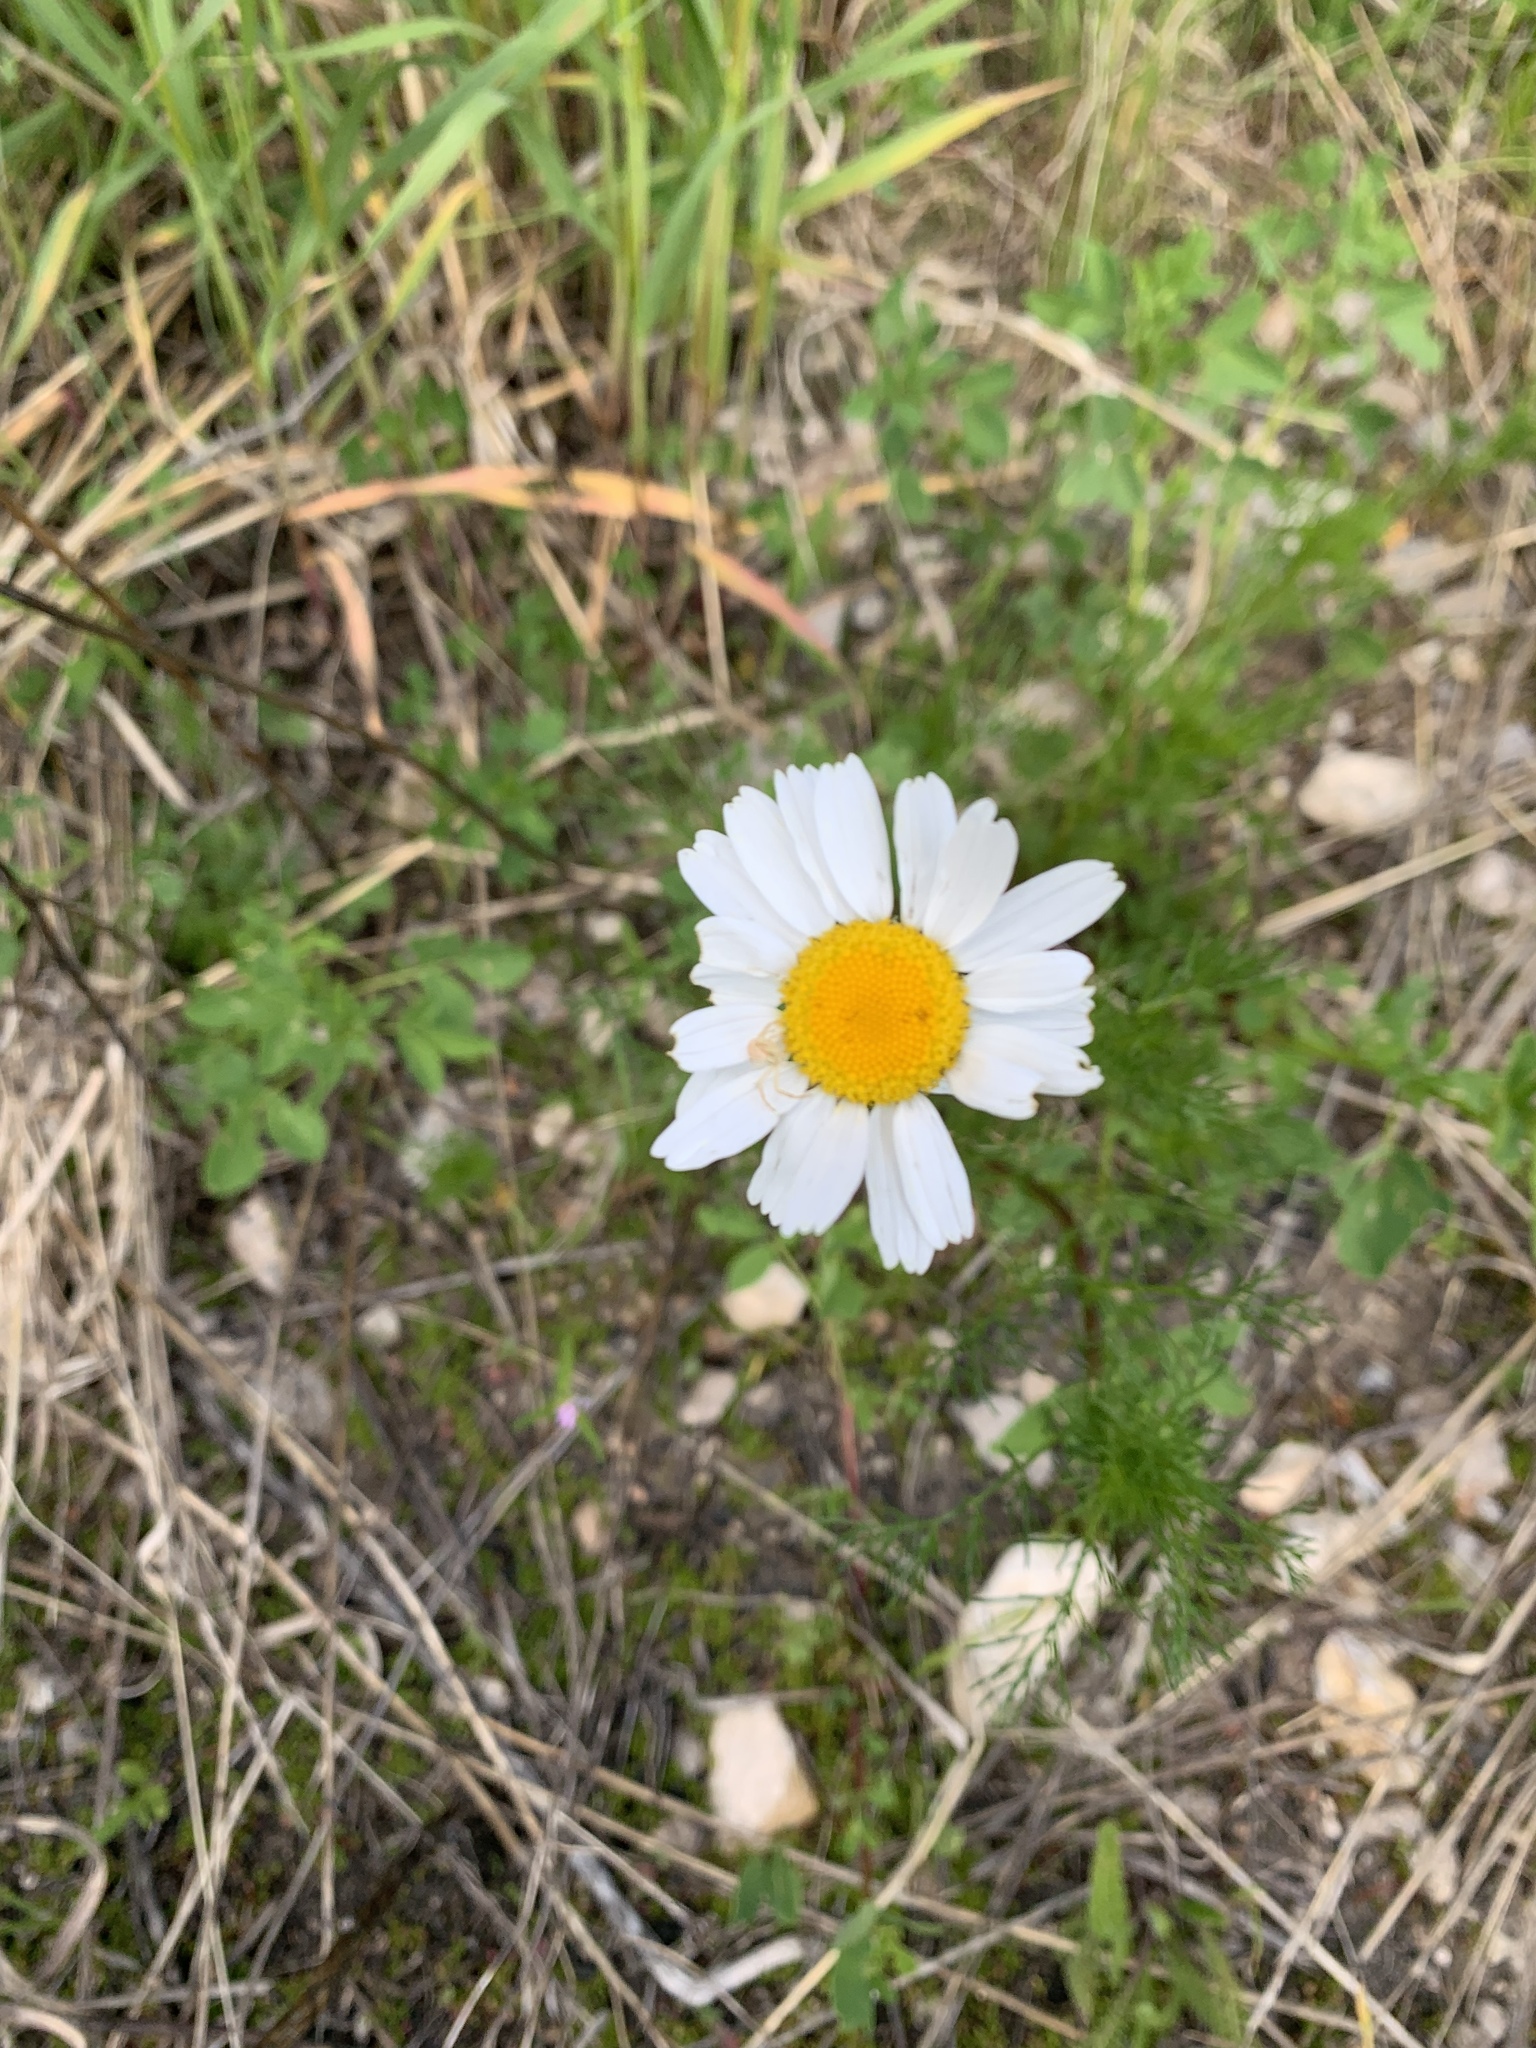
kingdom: Plantae
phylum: Tracheophyta
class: Magnoliopsida
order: Asterales
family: Asteraceae
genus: Tripleurospermum
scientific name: Tripleurospermum inodorum
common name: Scentless mayweed
